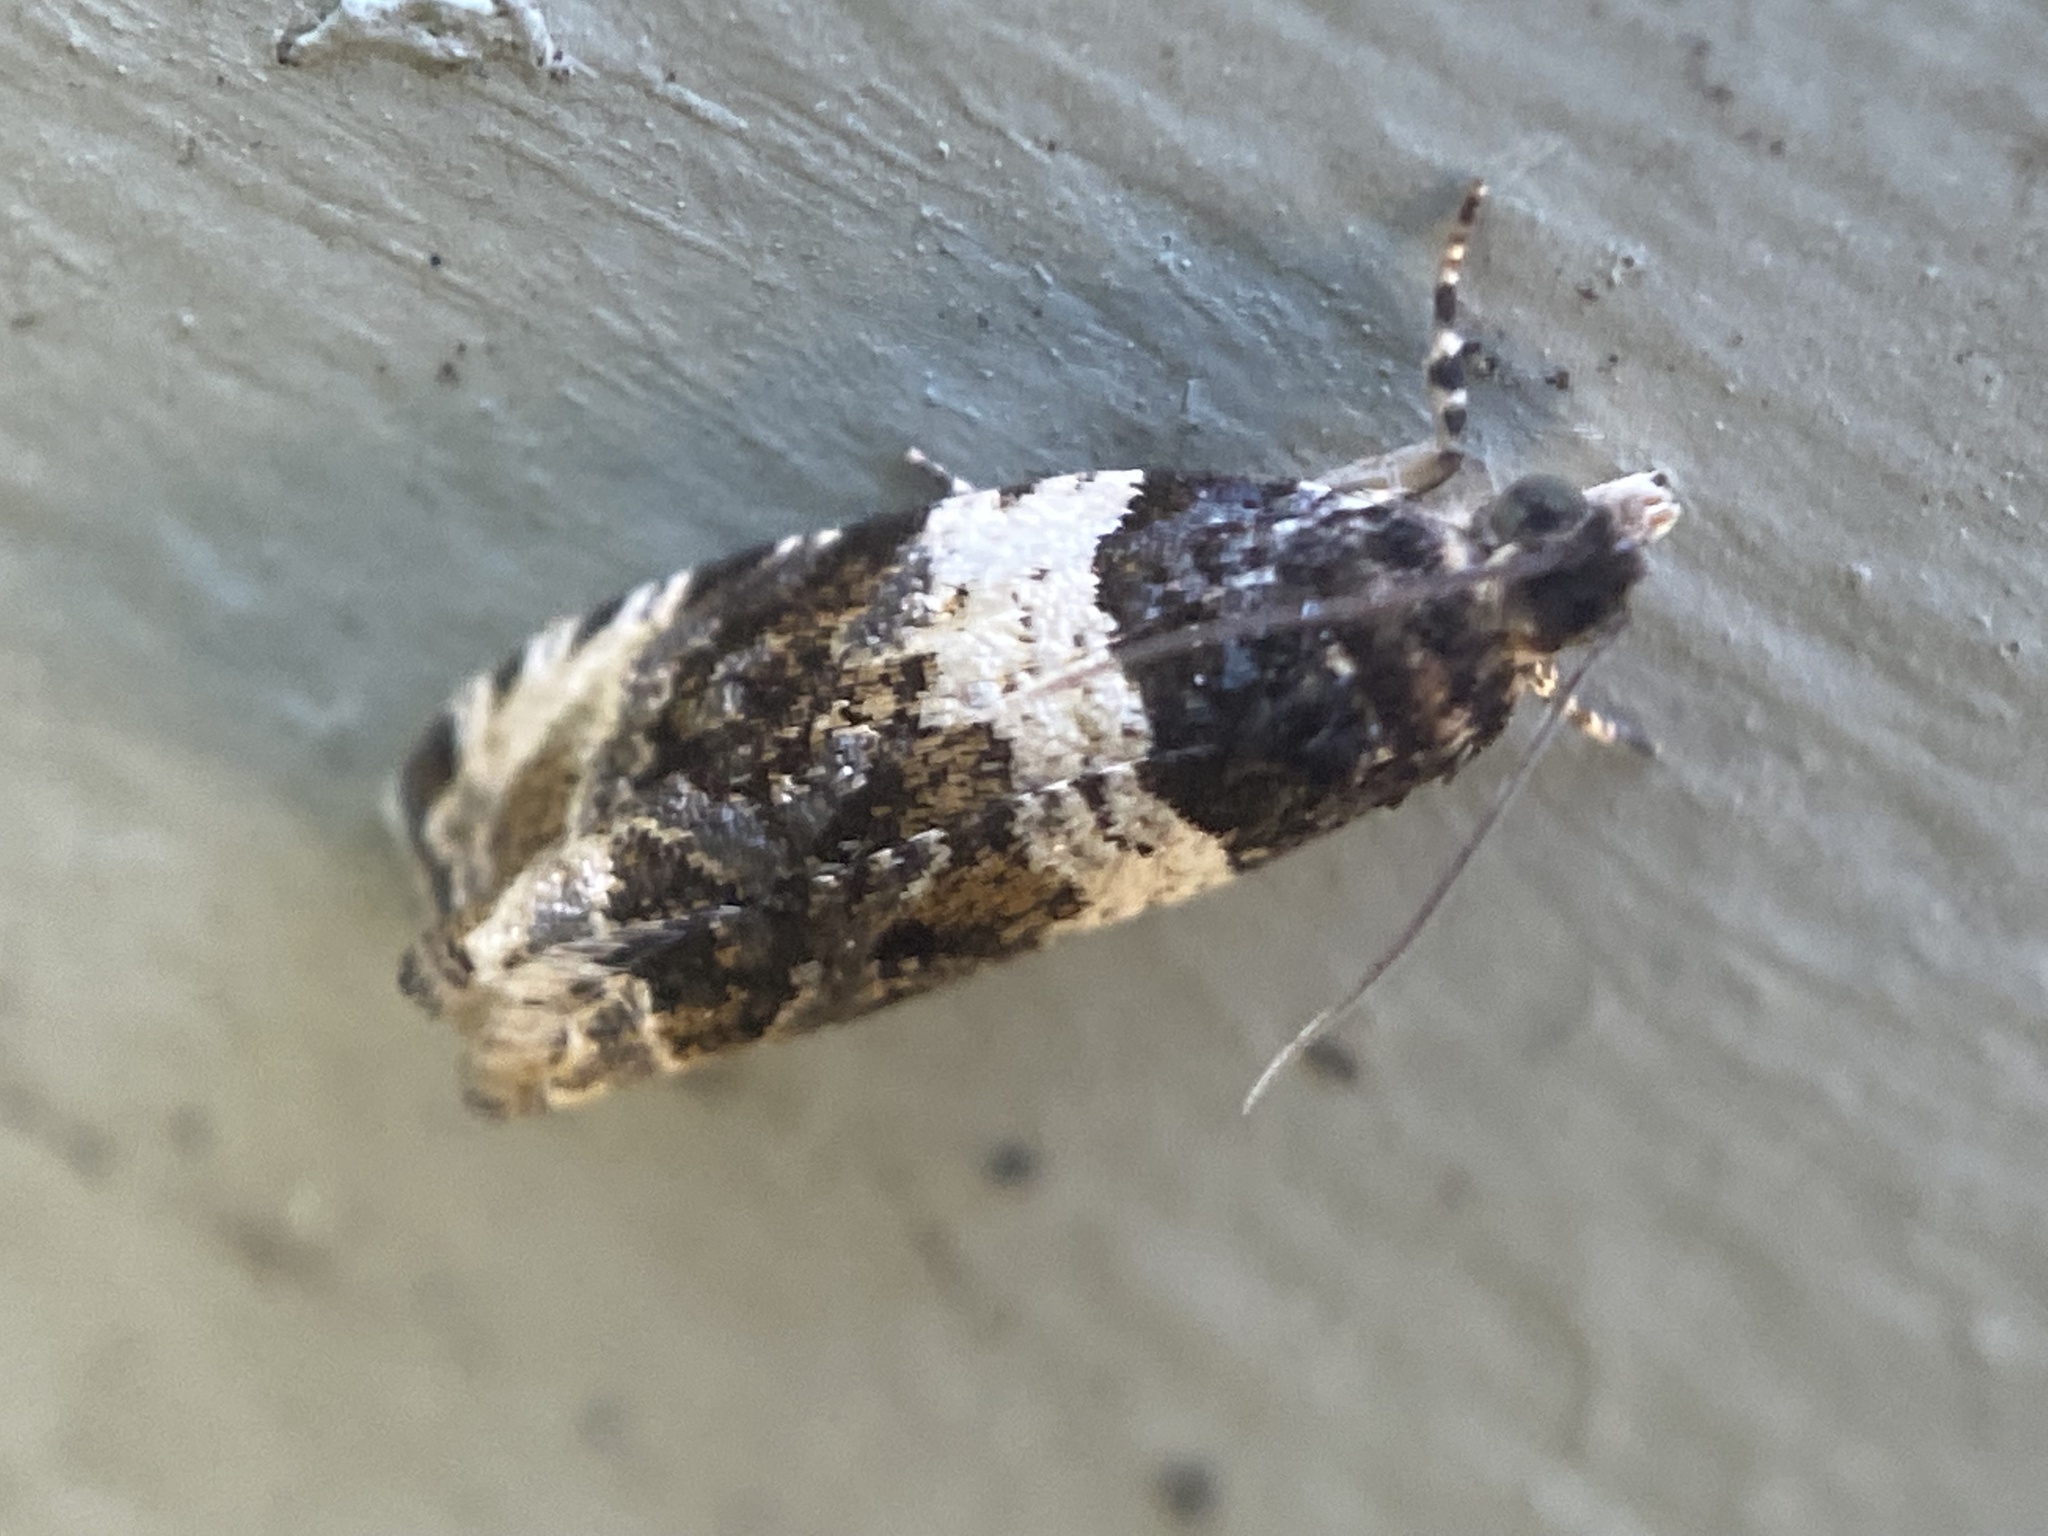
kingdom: Animalia
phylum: Arthropoda
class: Insecta
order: Lepidoptera
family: Tortricidae
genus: Olethreutes
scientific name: Olethreutes fasciatana
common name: Banded olethreutes moth
